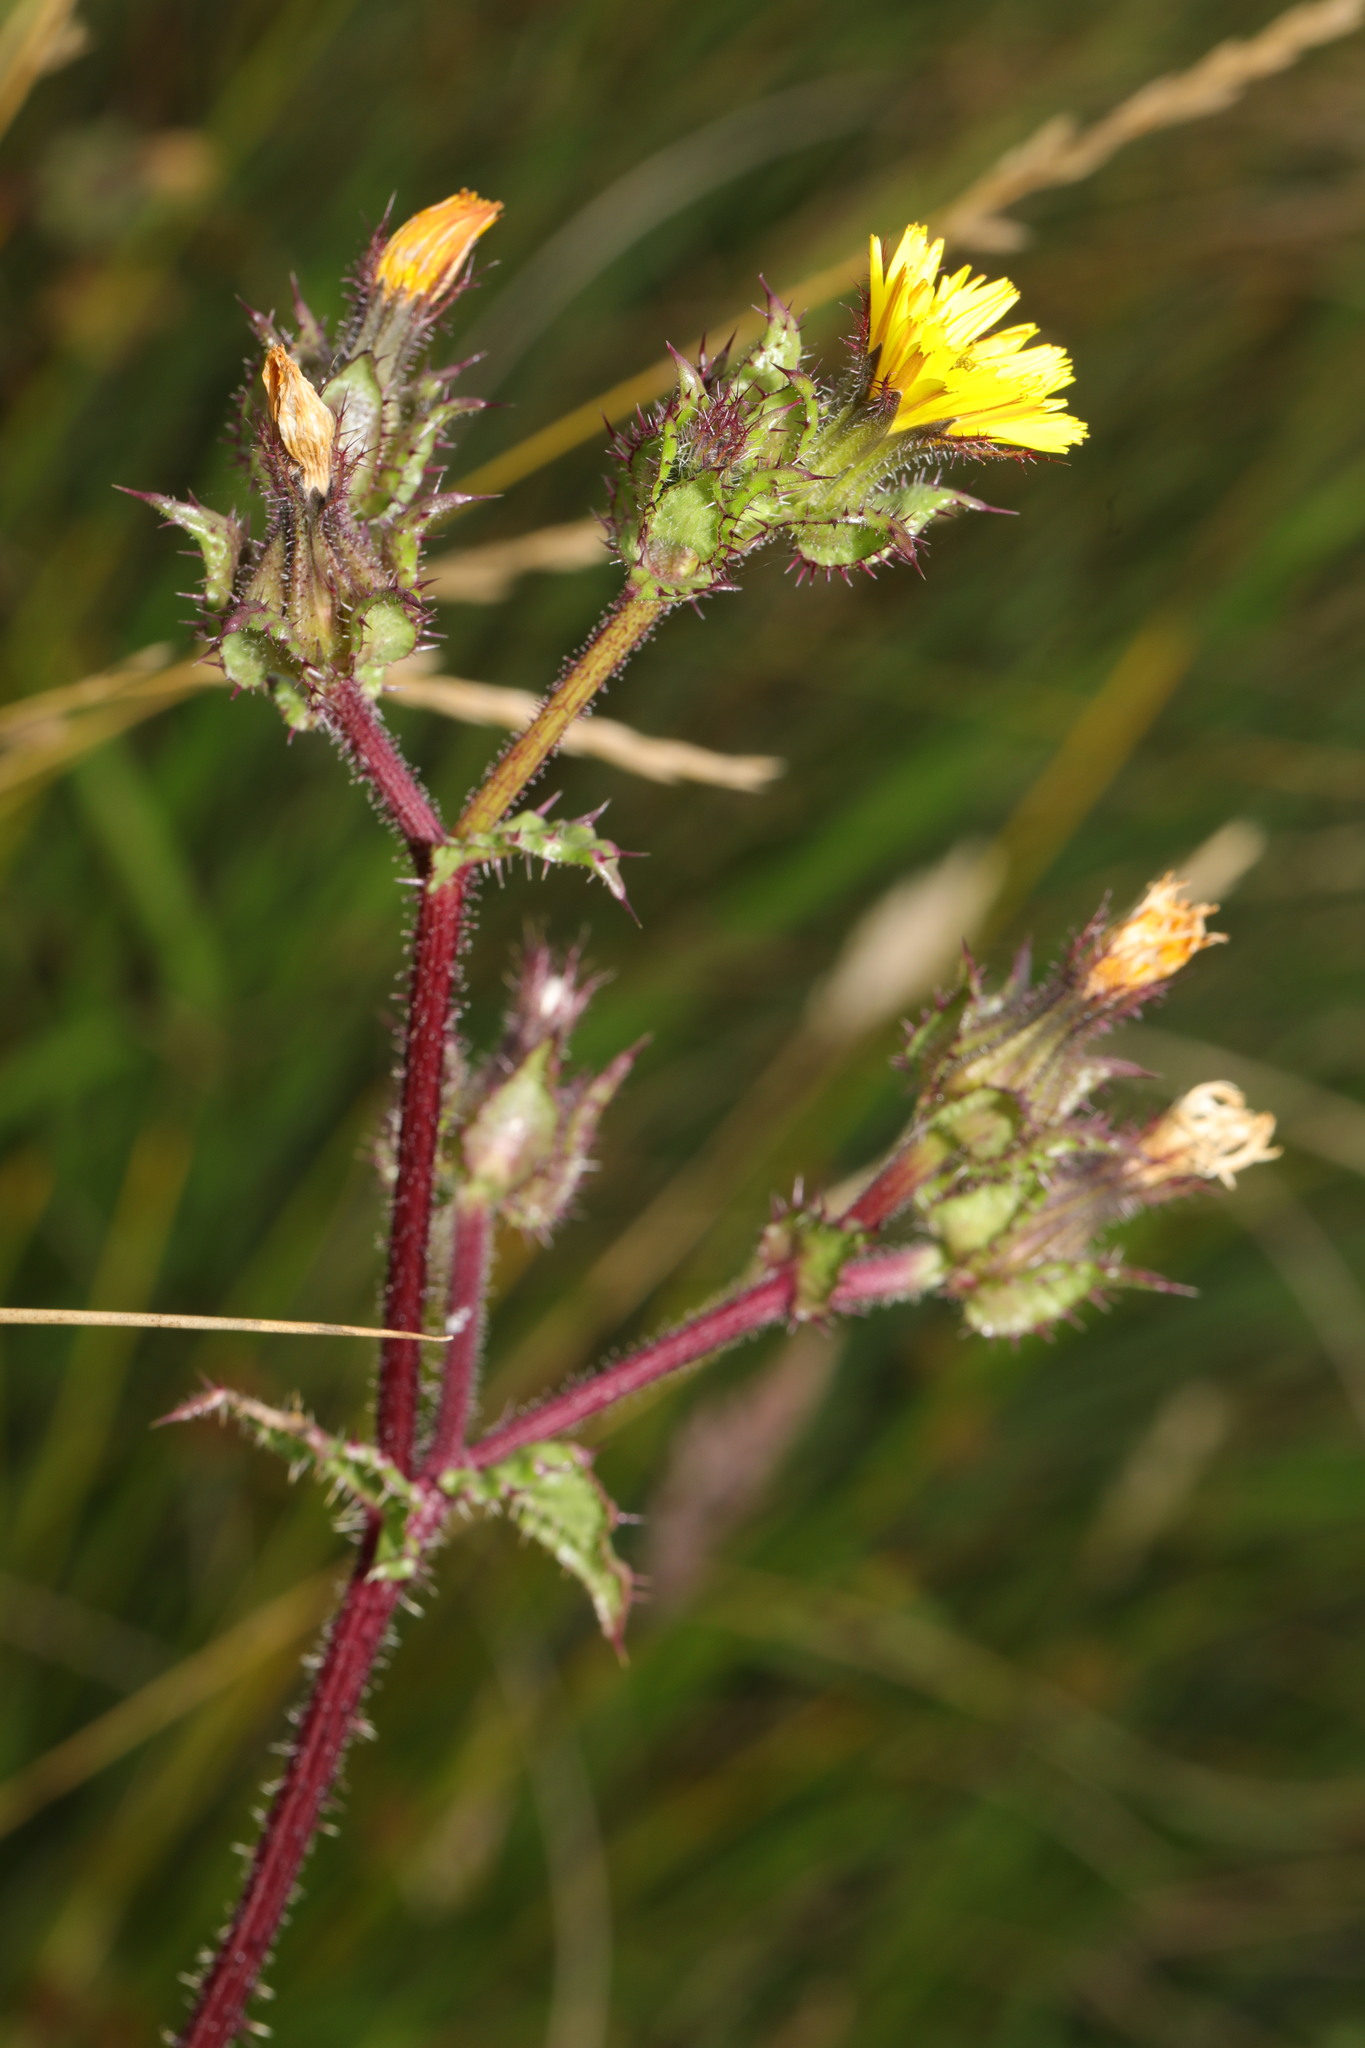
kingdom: Plantae
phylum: Tracheophyta
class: Magnoliopsida
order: Asterales
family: Asteraceae
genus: Helminthotheca
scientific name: Helminthotheca echioides
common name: Ox-tongue
